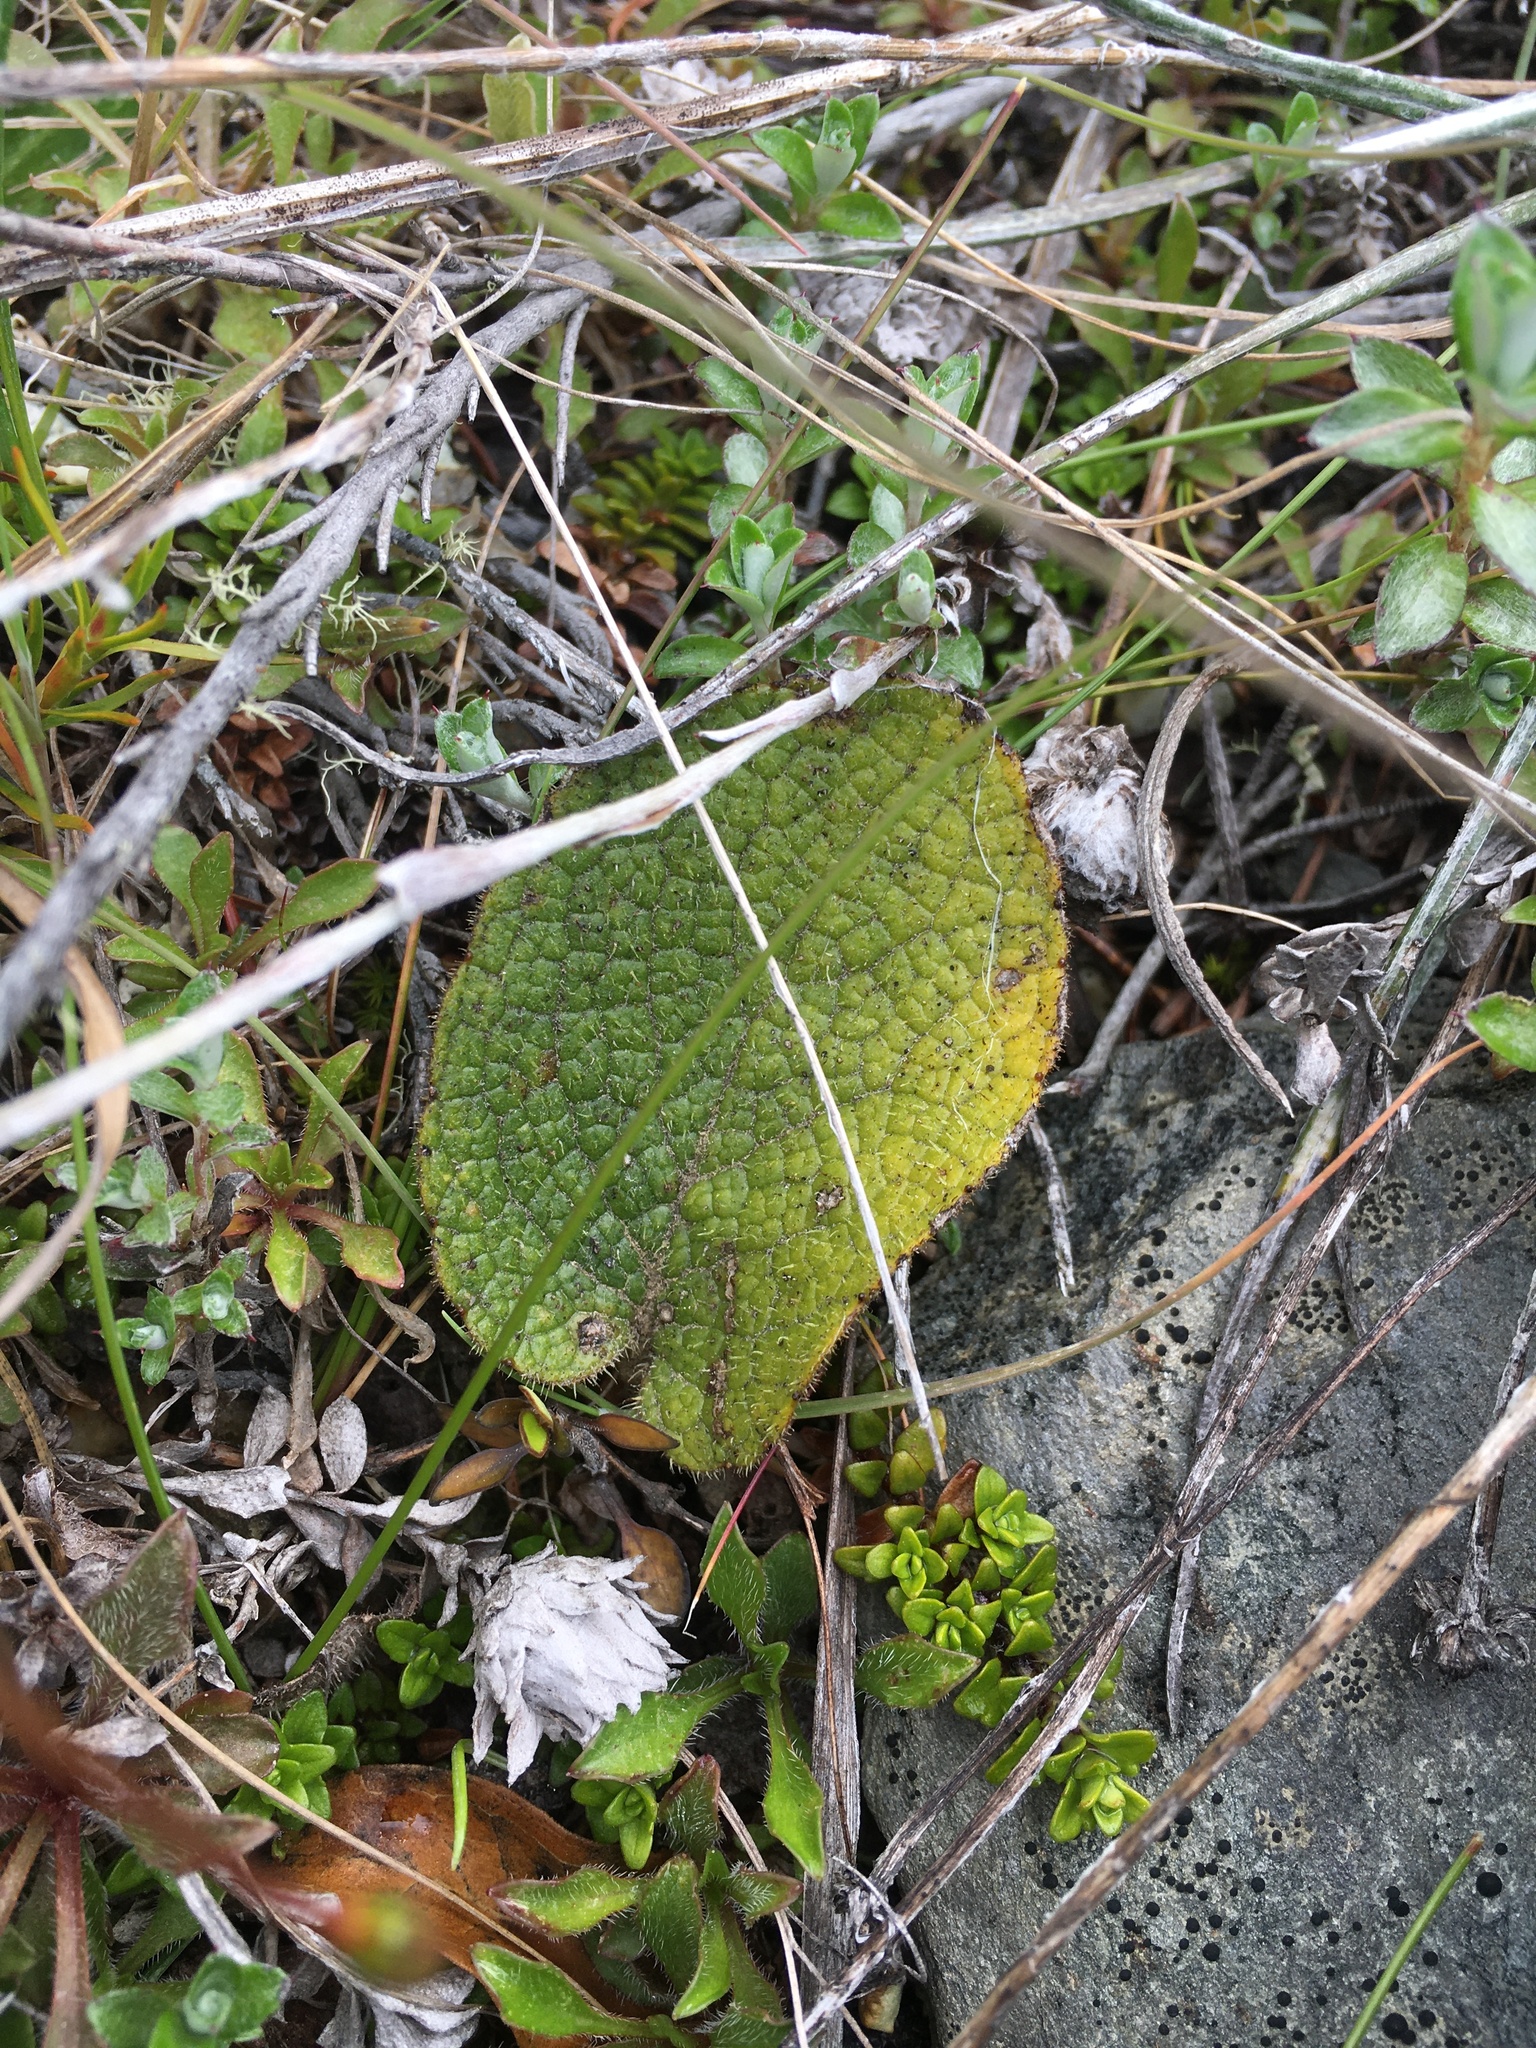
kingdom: Plantae
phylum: Tracheophyta
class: Magnoliopsida
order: Asterales
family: Asteraceae
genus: Brachyglottis
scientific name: Brachyglottis bellidioides
